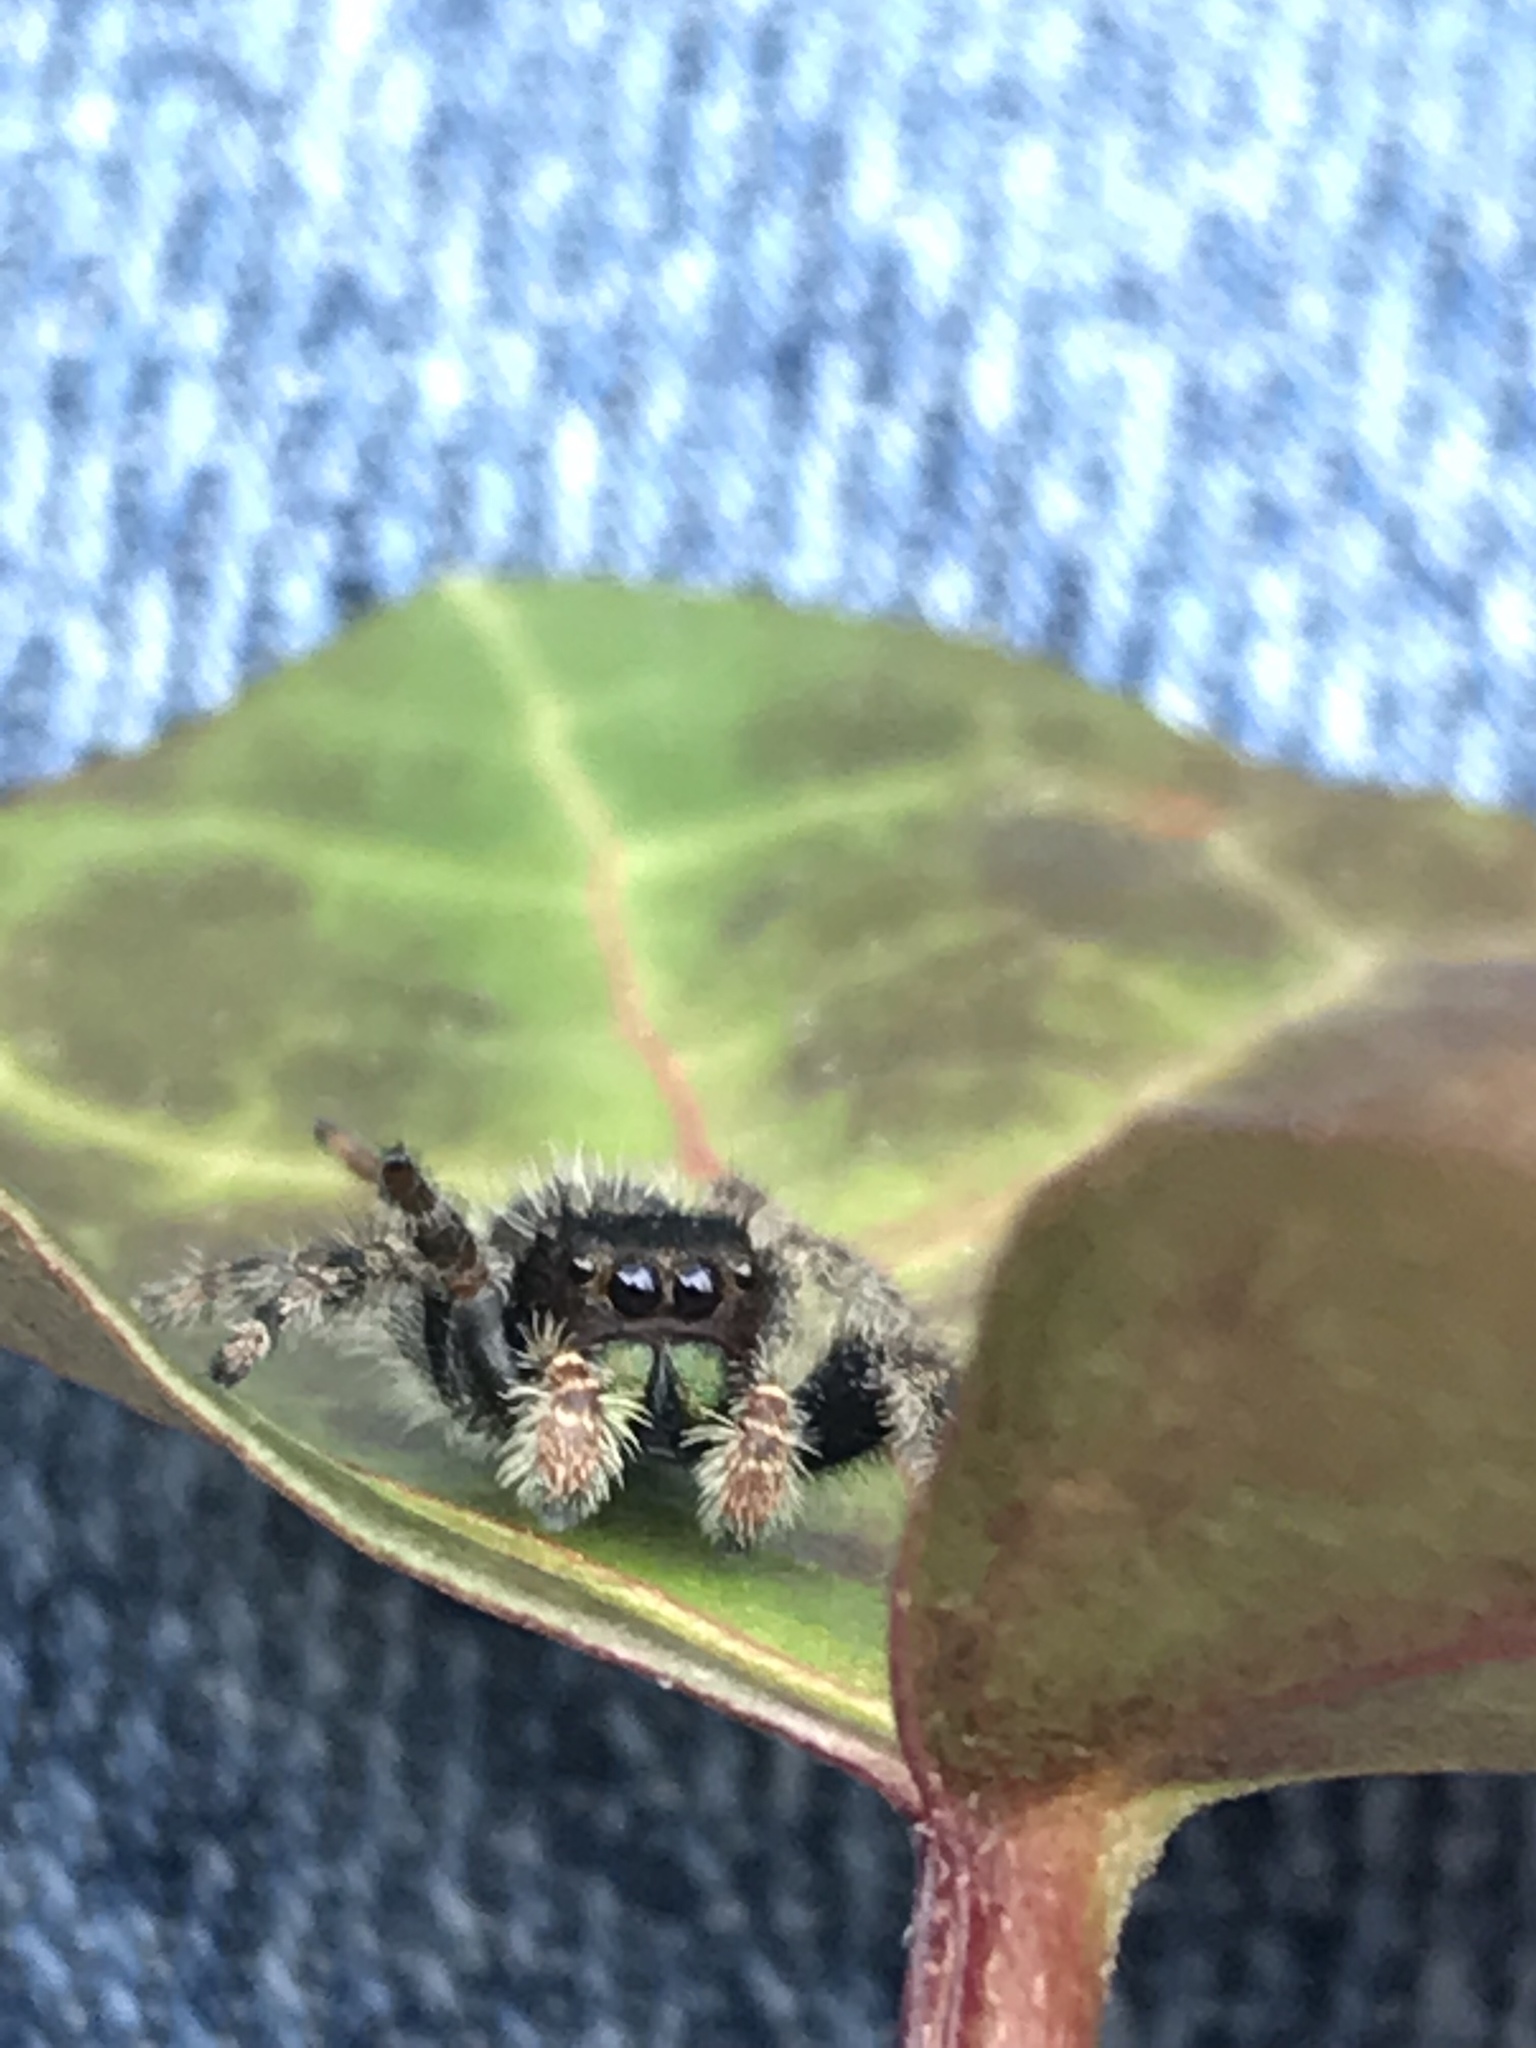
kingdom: Animalia
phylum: Arthropoda
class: Arachnida
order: Araneae
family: Salticidae
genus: Phidippus
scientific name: Phidippus audax
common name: Bold jumper
